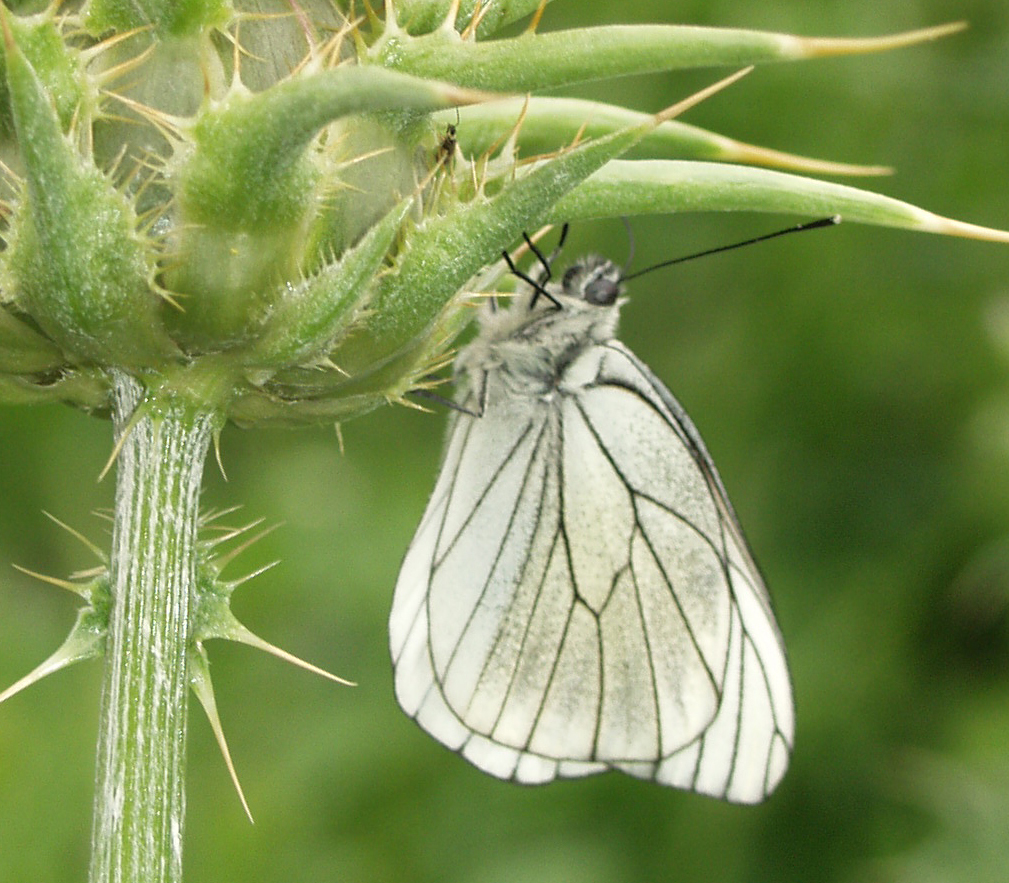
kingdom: Animalia
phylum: Arthropoda
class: Insecta
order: Lepidoptera
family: Pieridae
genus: Aporia
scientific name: Aporia crataegi
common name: Black-veined white
